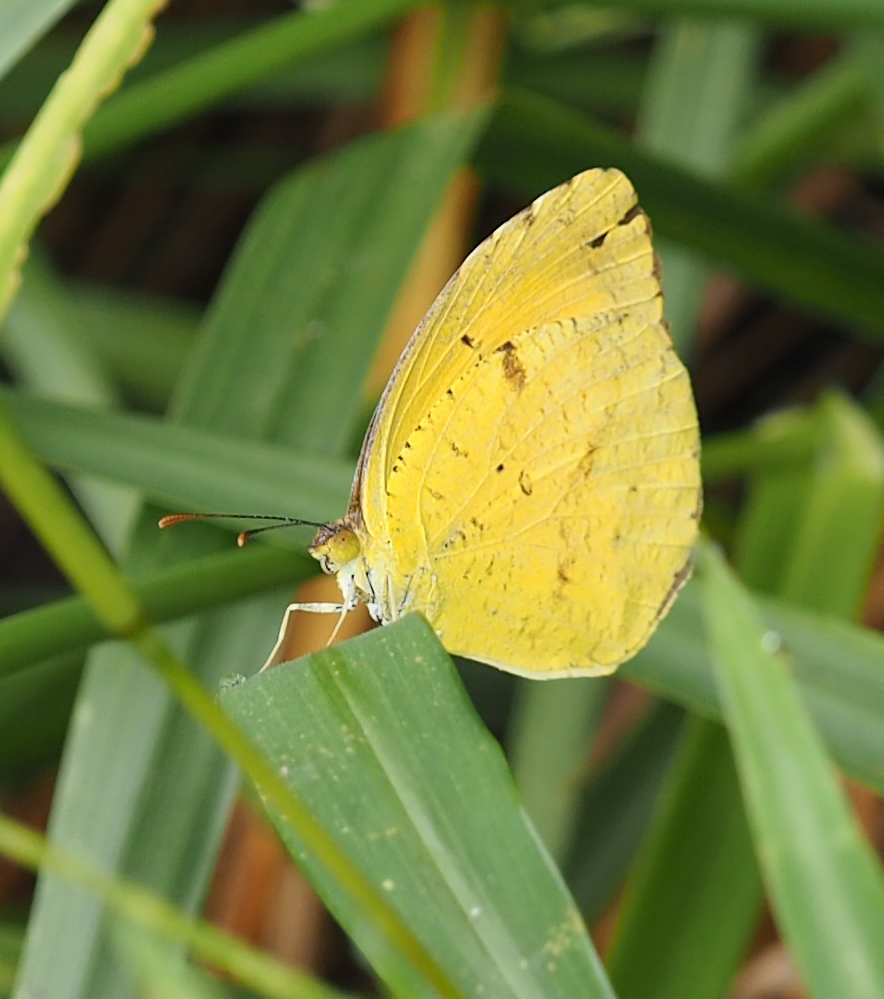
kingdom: Animalia
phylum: Arthropoda
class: Insecta
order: Lepidoptera
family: Pieridae
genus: Abaeis
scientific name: Abaeis nicippe
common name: Sleepy orange
